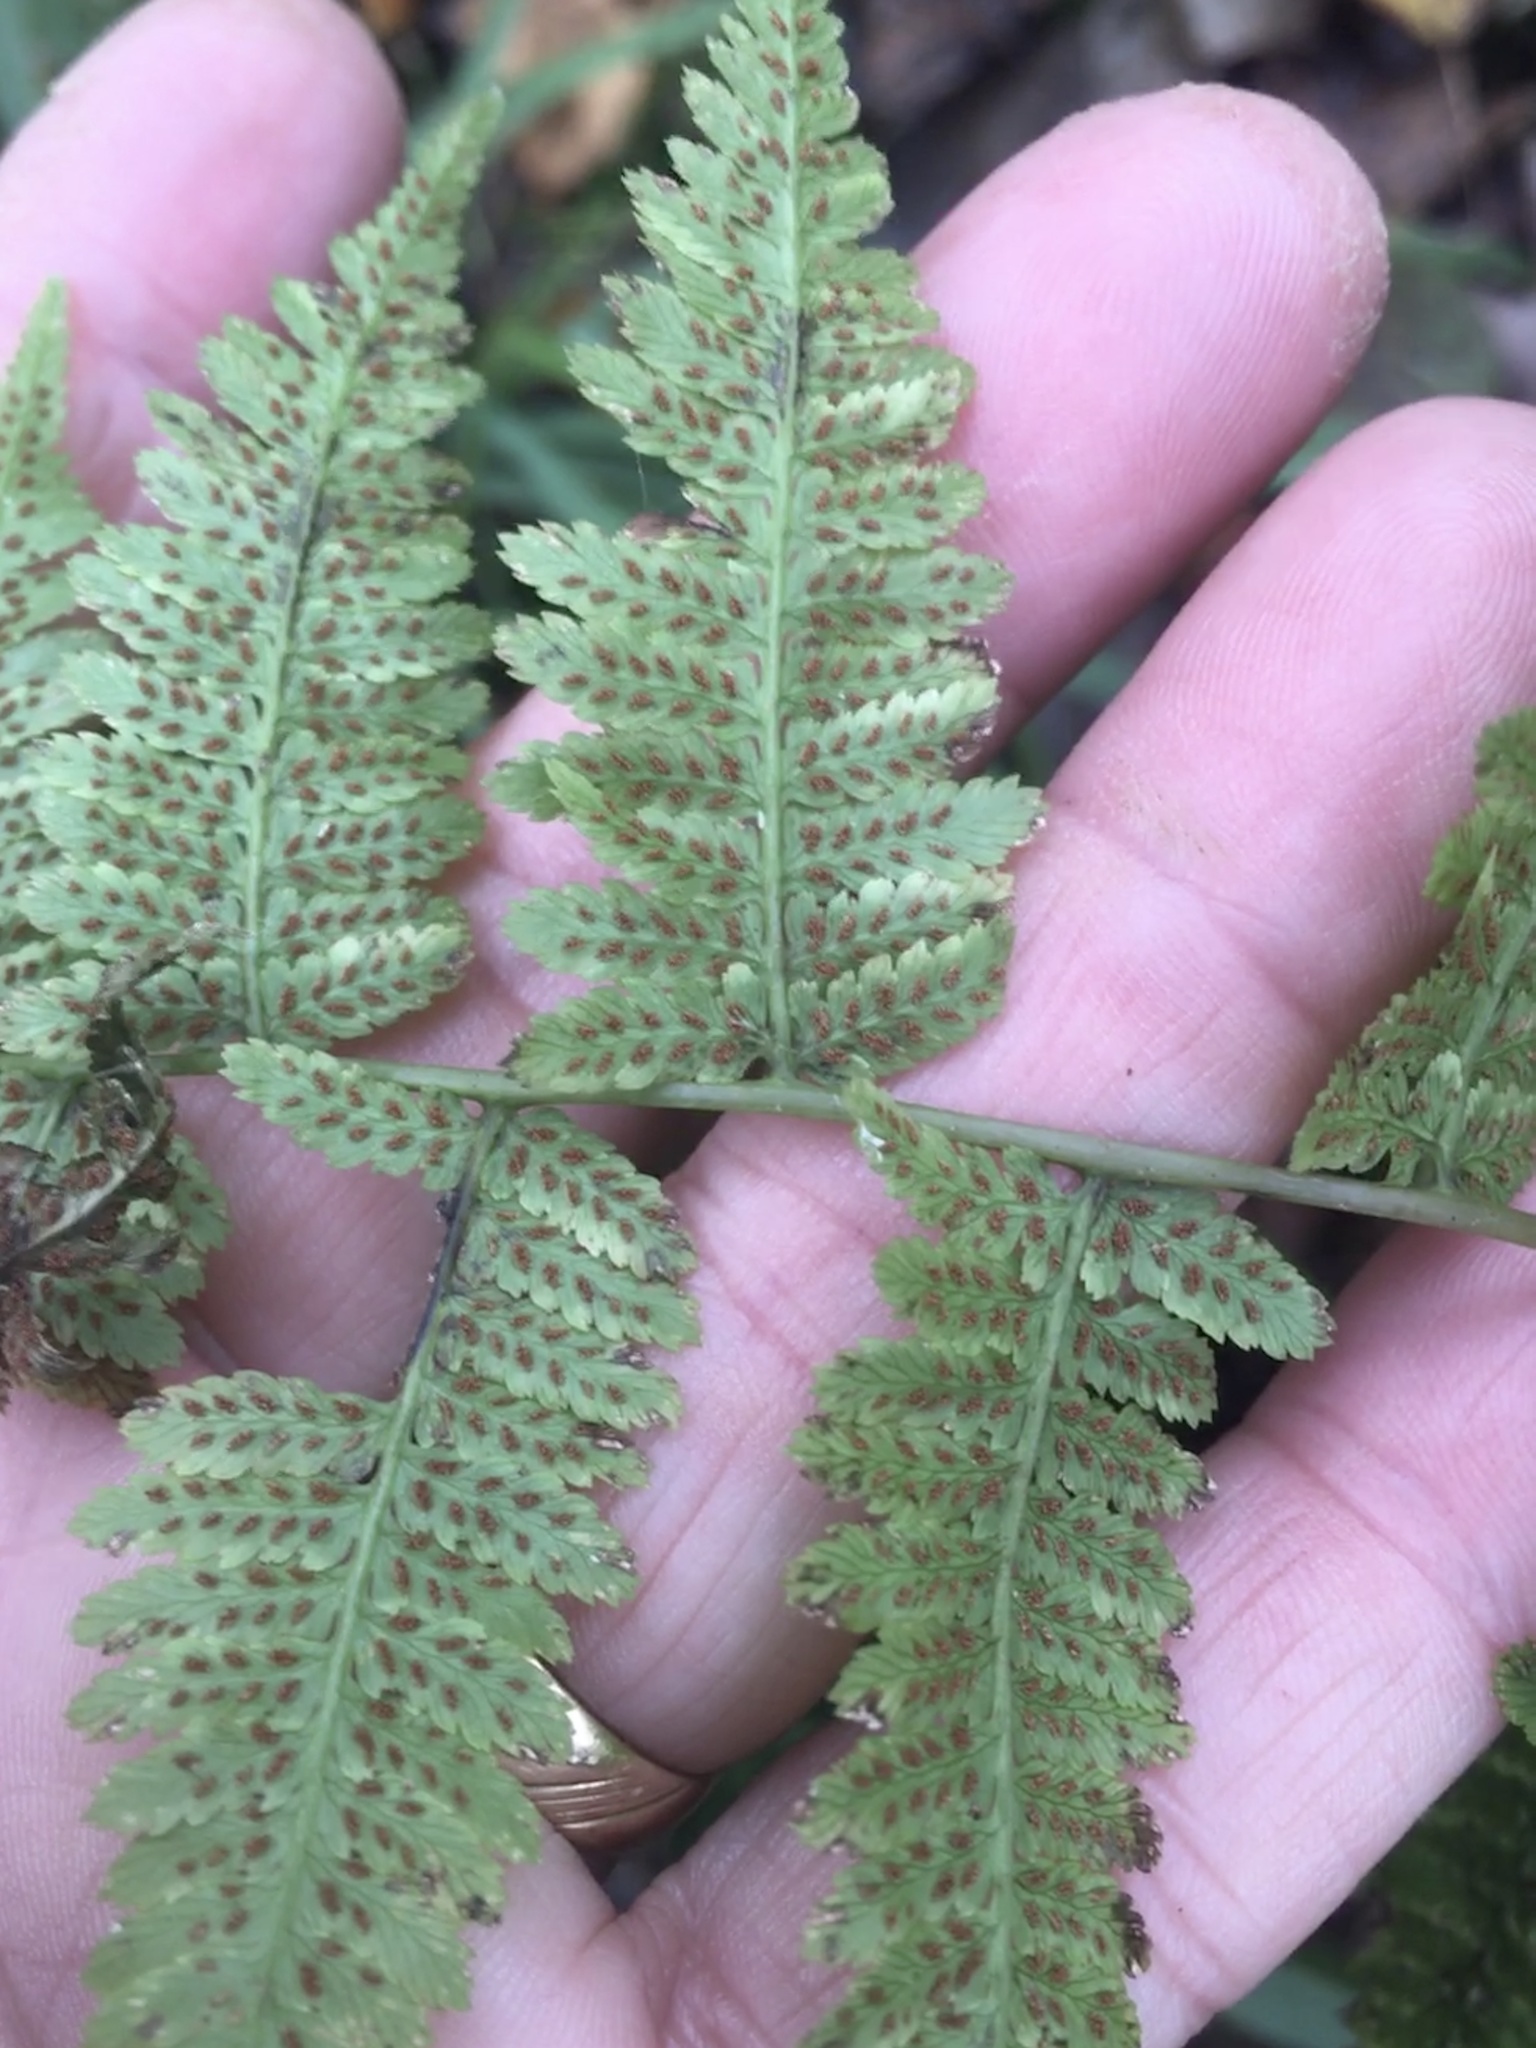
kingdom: Plantae
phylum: Tracheophyta
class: Polypodiopsida
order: Polypodiales
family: Athyriaceae
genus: Athyrium
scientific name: Athyrium asplenioides
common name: Southern lady fern
